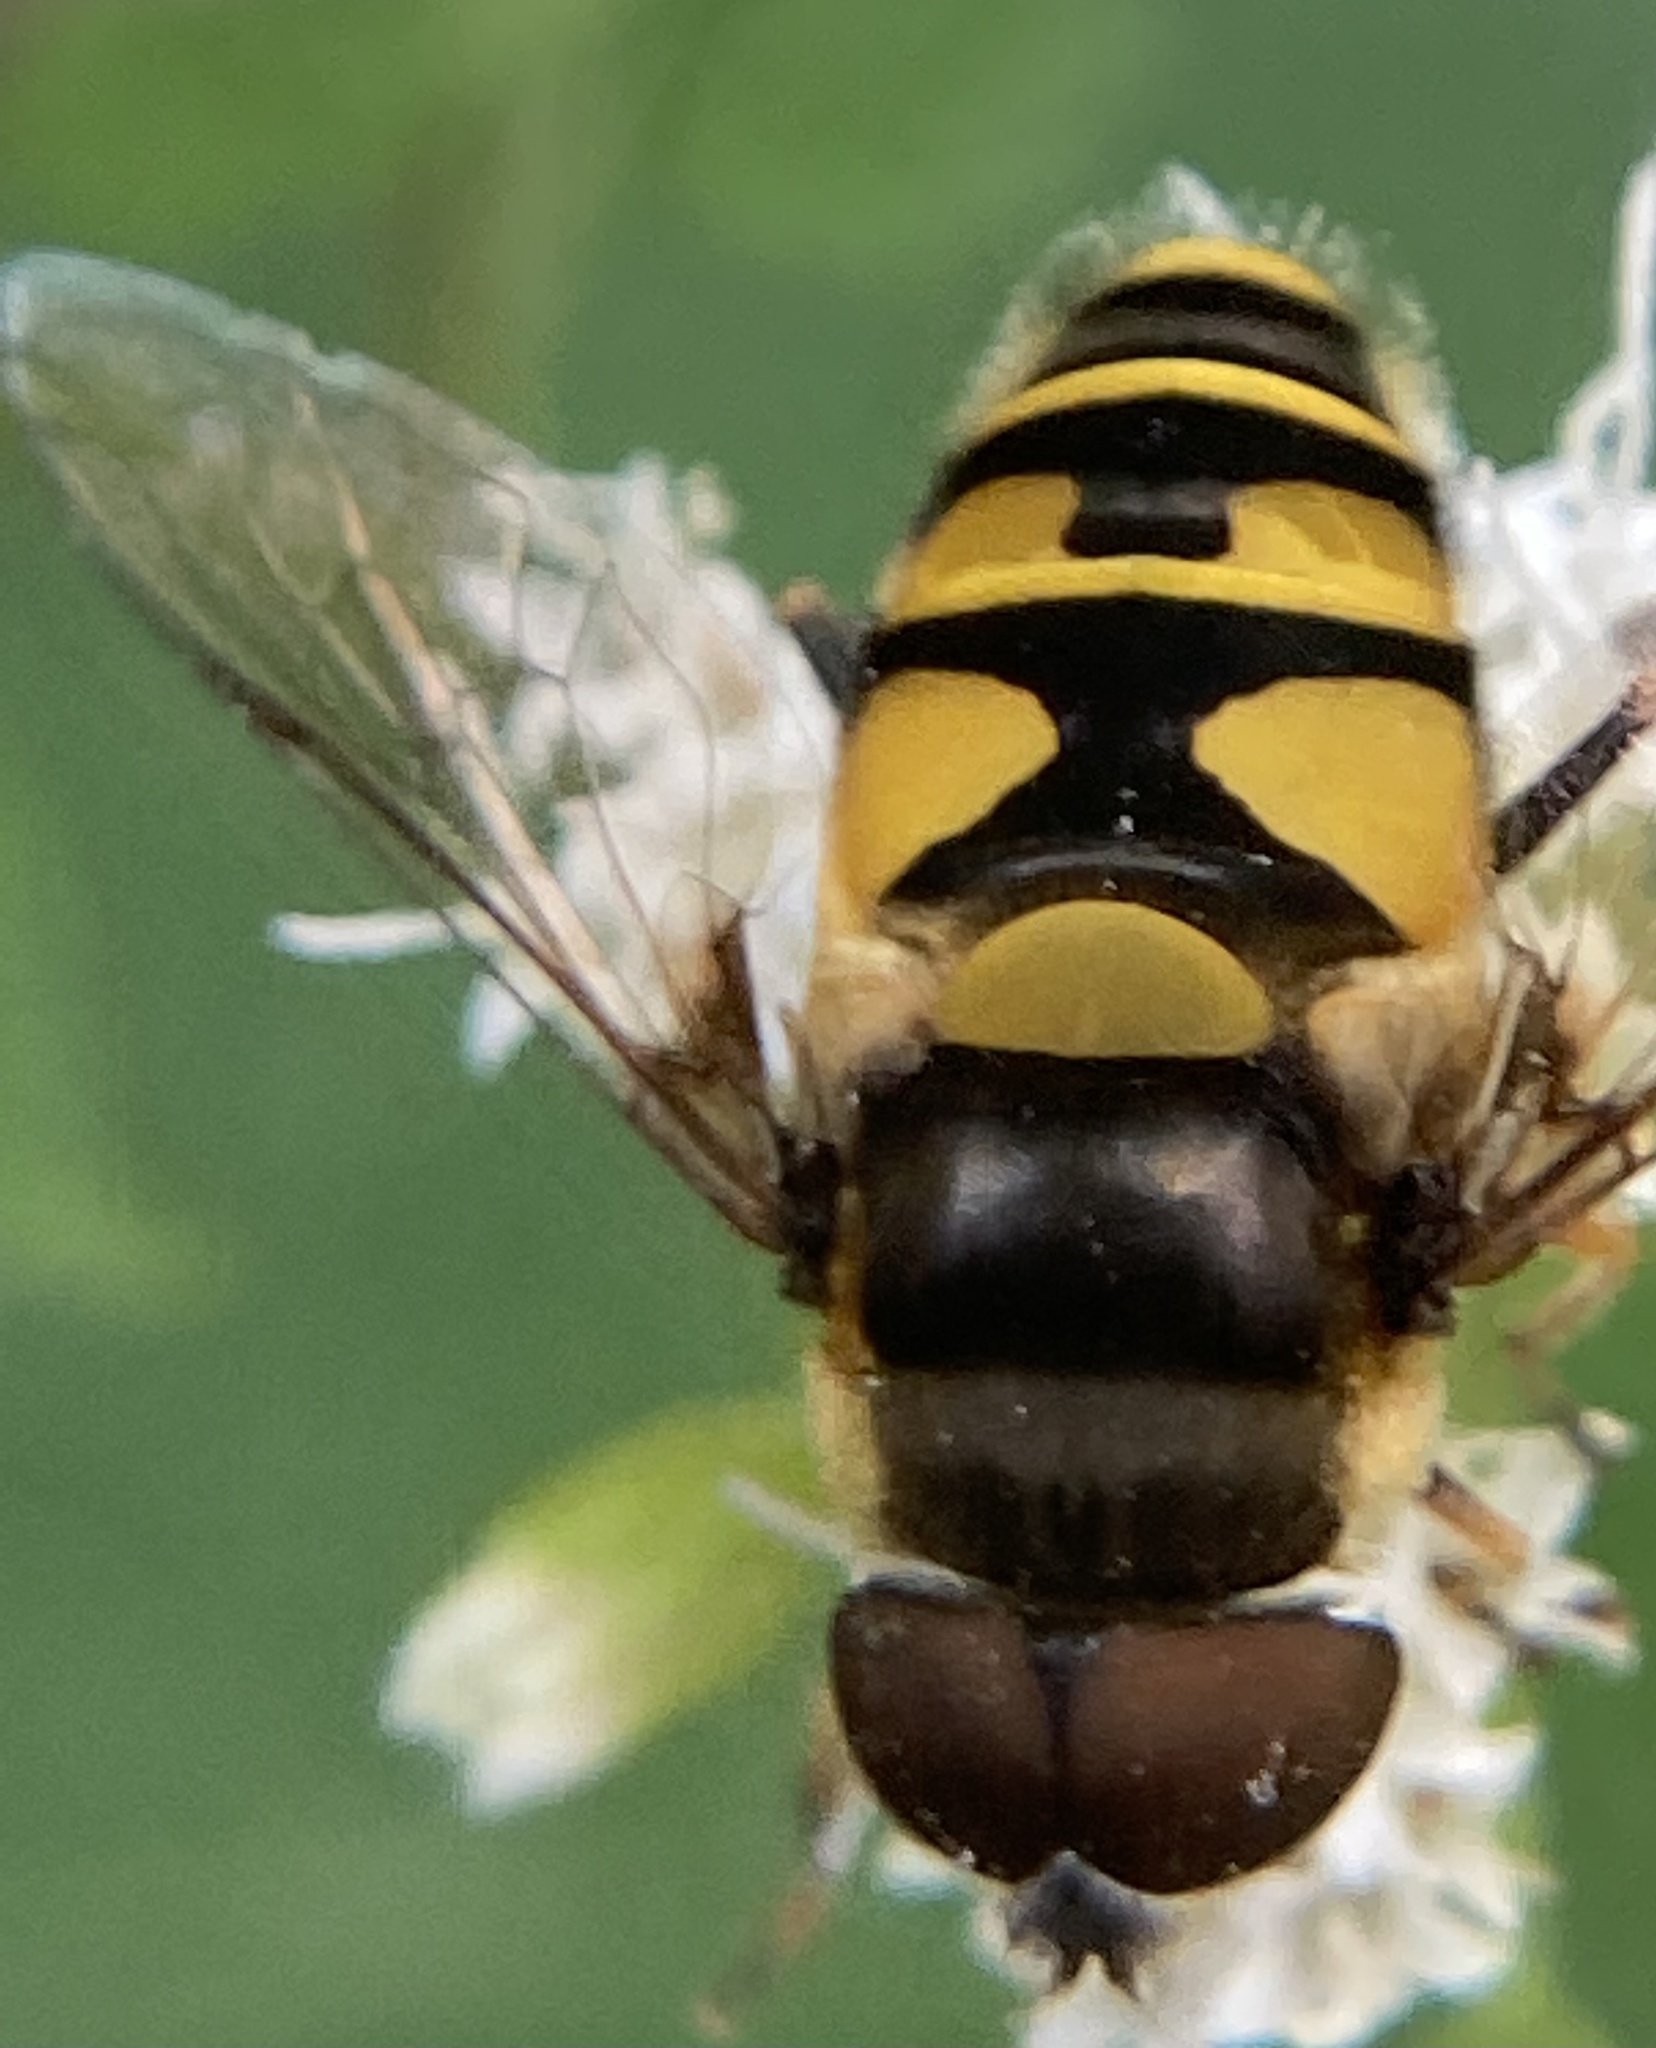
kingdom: Animalia
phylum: Arthropoda
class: Insecta
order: Diptera
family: Syrphidae
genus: Eristalis
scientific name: Eristalis transversa
